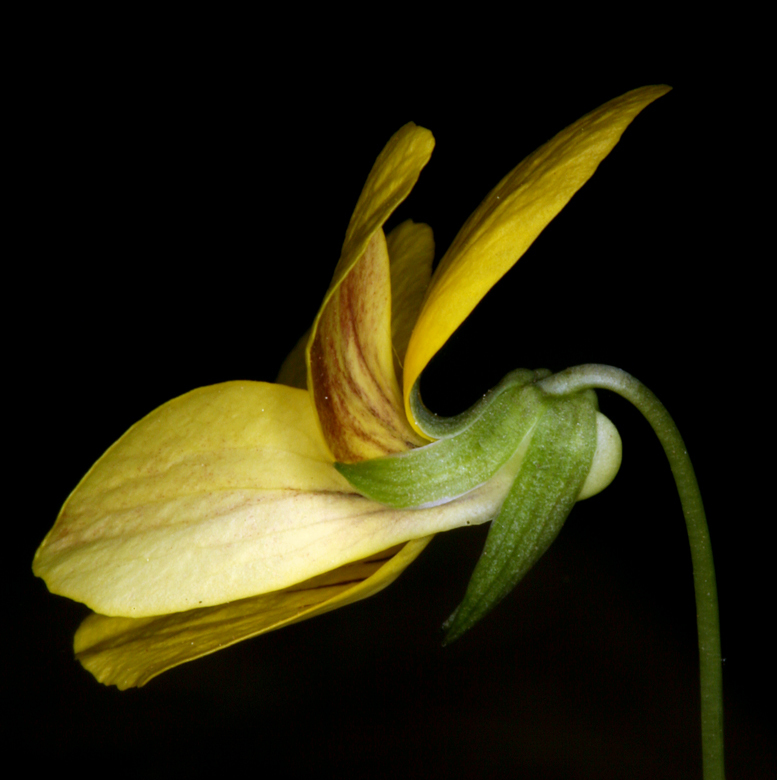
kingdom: Plantae
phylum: Tracheophyta
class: Magnoliopsida
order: Malpighiales
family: Violaceae
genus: Viola
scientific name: Viola lobata
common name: Pine violet
